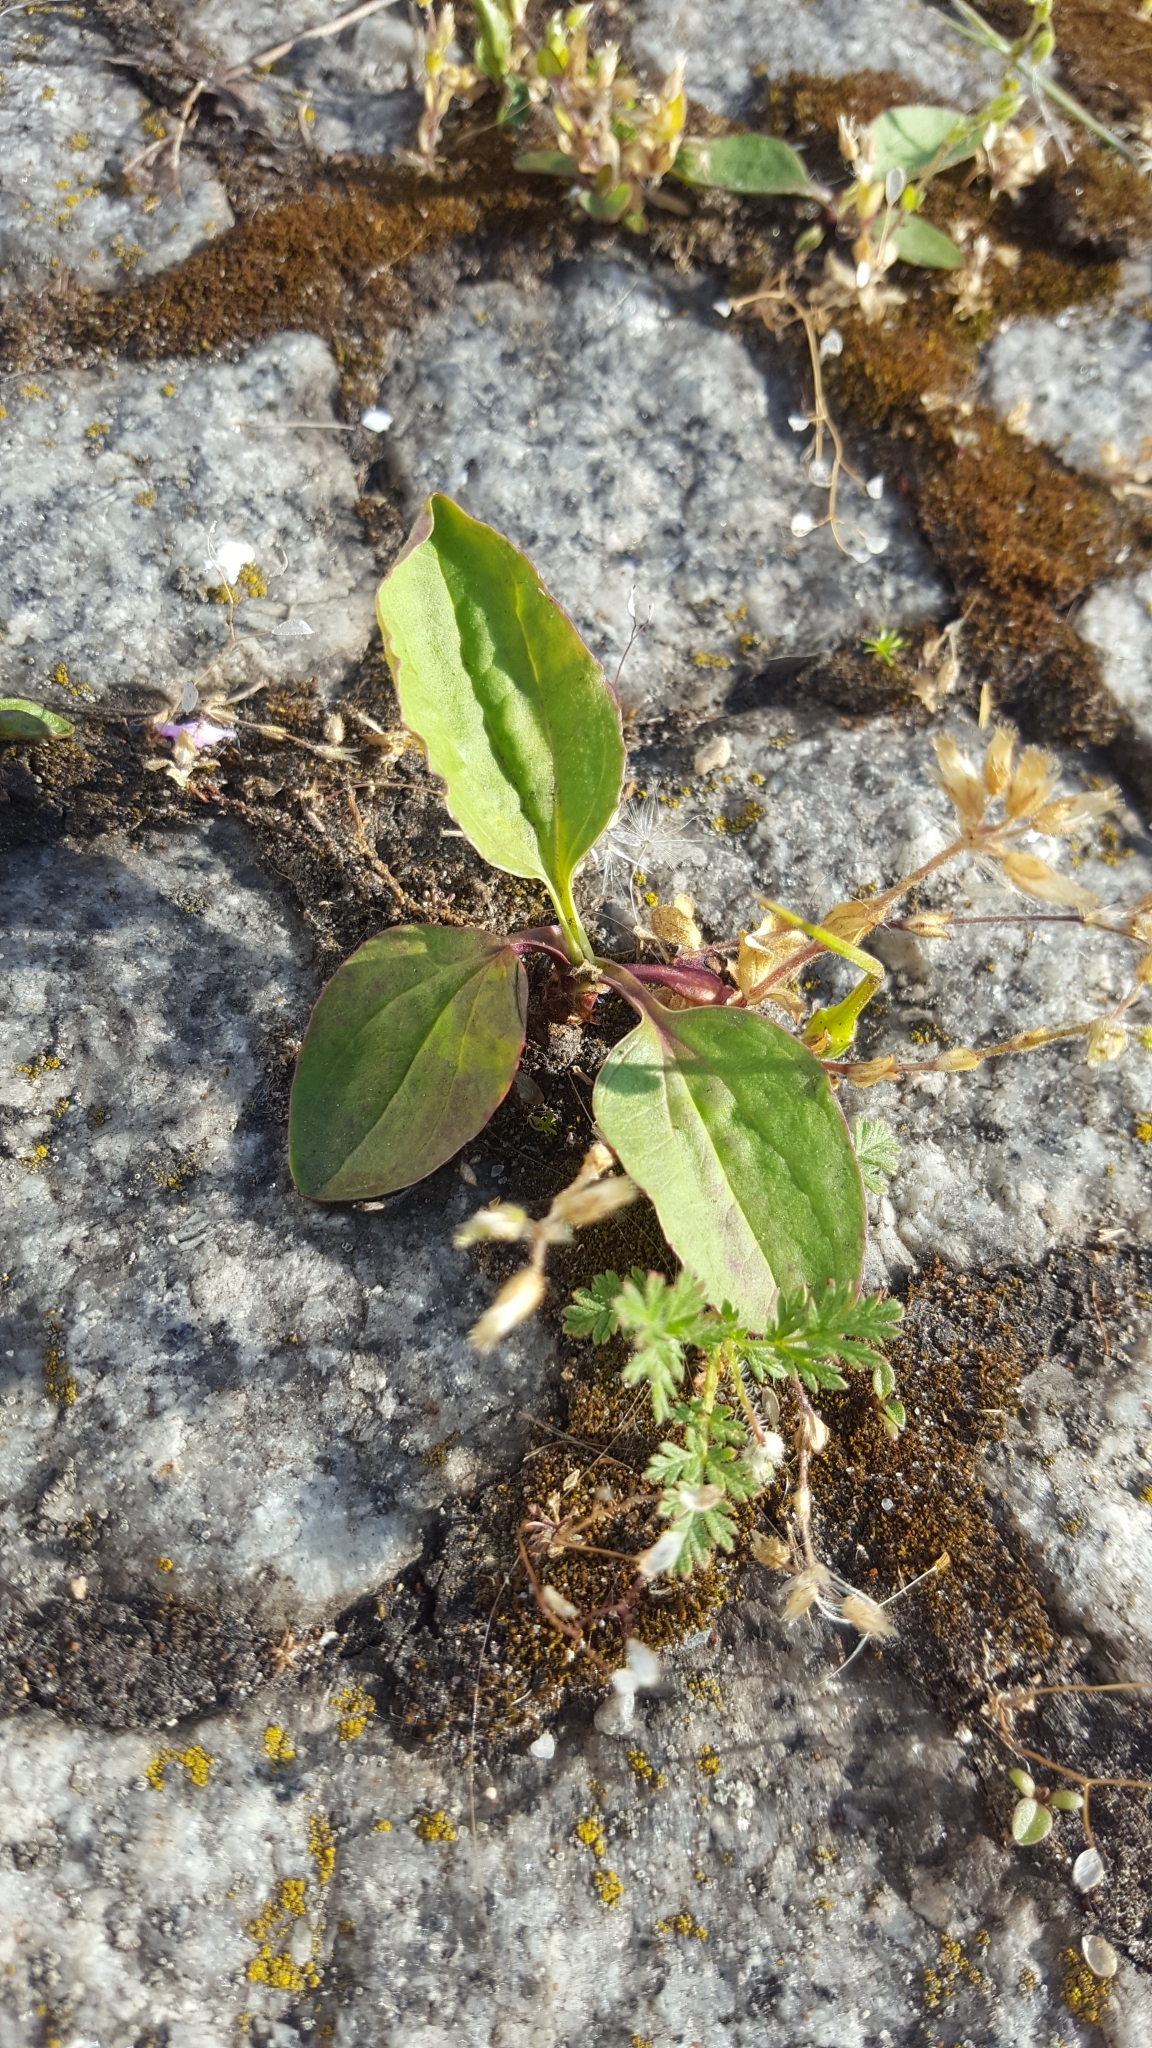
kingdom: Plantae
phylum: Tracheophyta
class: Magnoliopsida
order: Lamiales
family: Plantaginaceae
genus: Plantago
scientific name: Plantago major
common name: Common plantain
